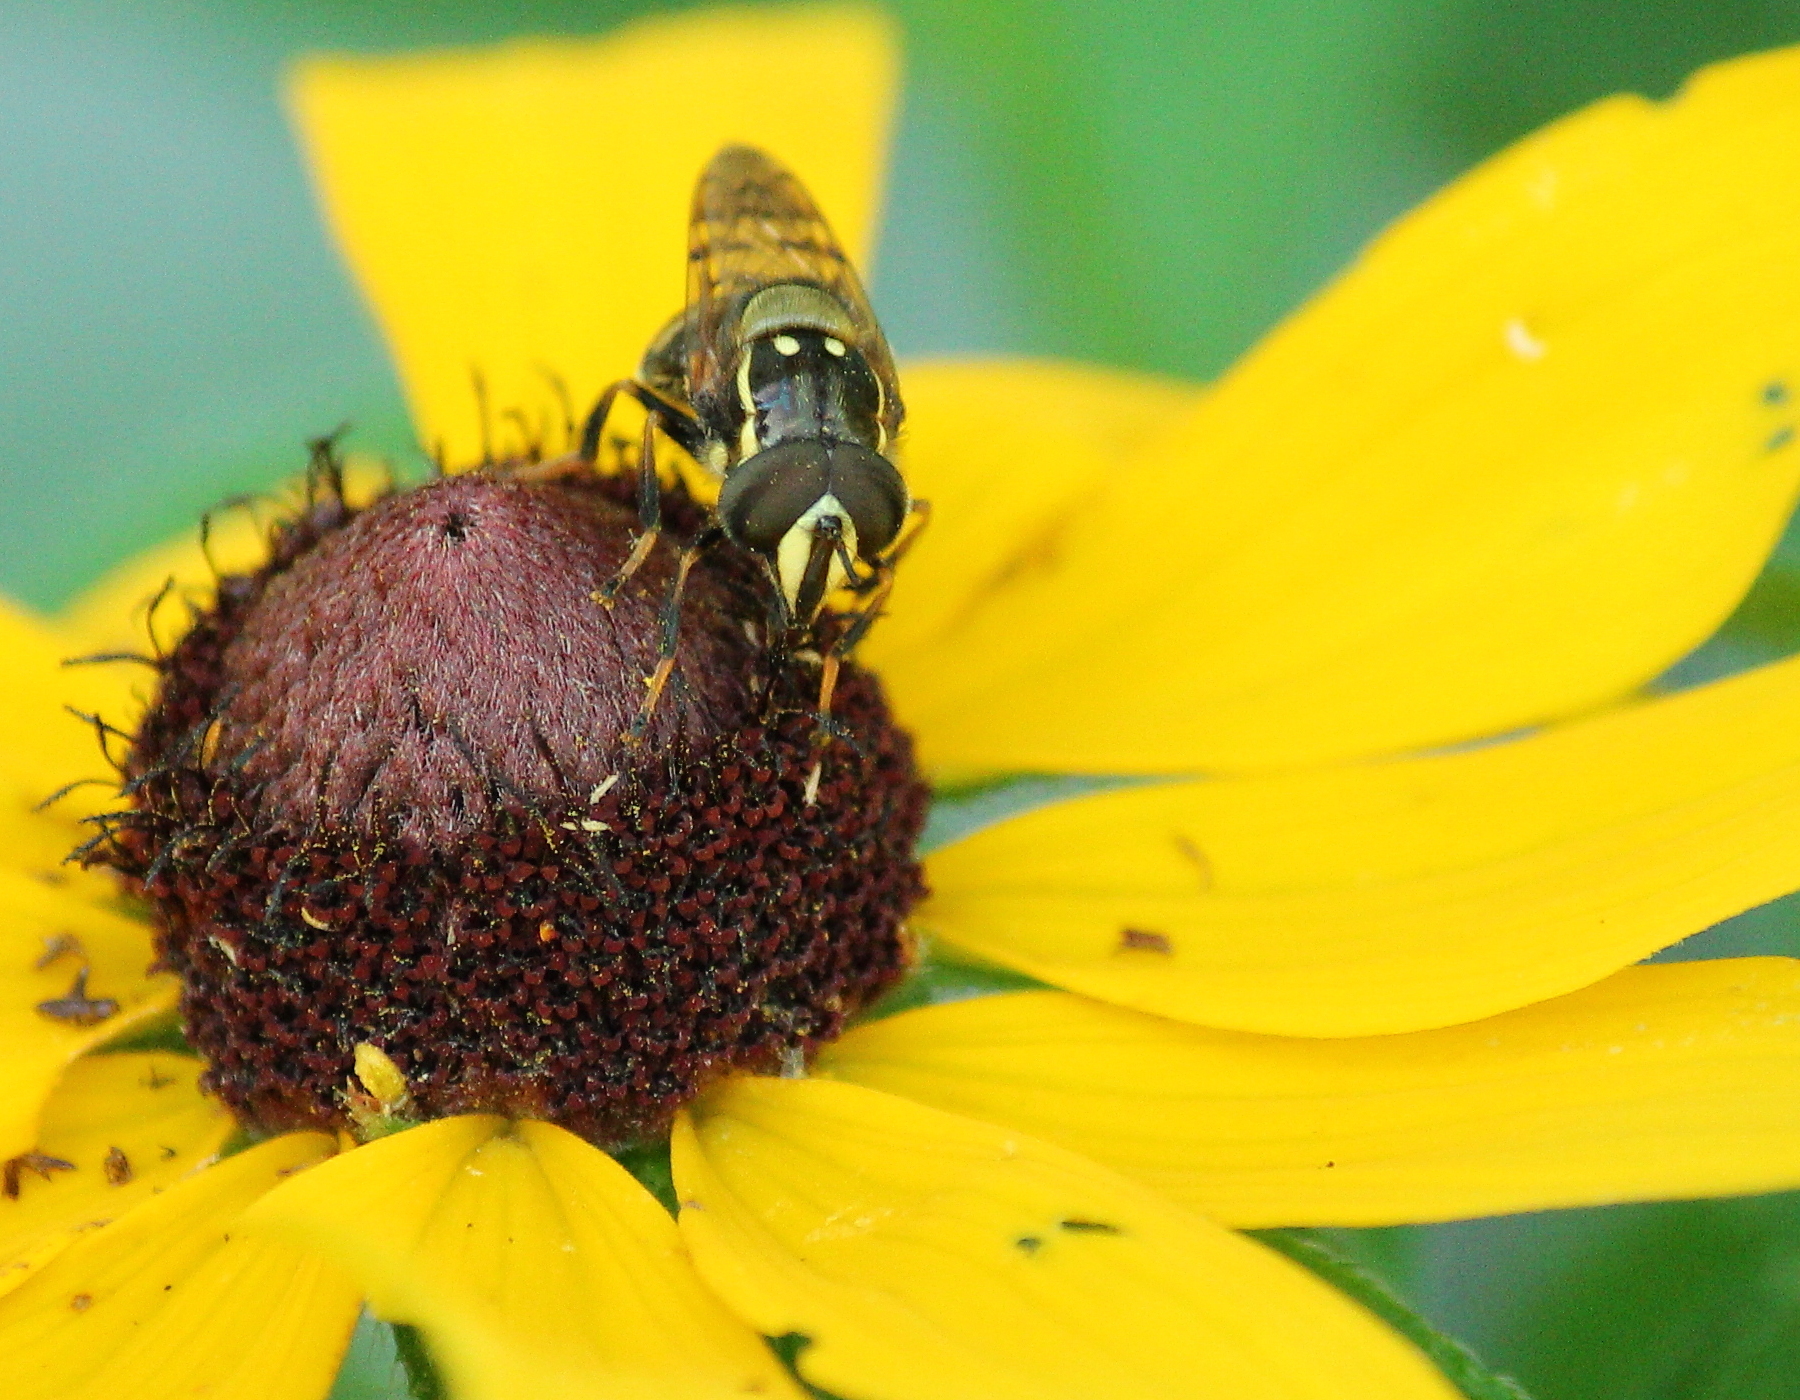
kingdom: Animalia
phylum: Arthropoda
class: Insecta
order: Diptera
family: Syrphidae
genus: Copestylum
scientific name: Copestylum vittatum
